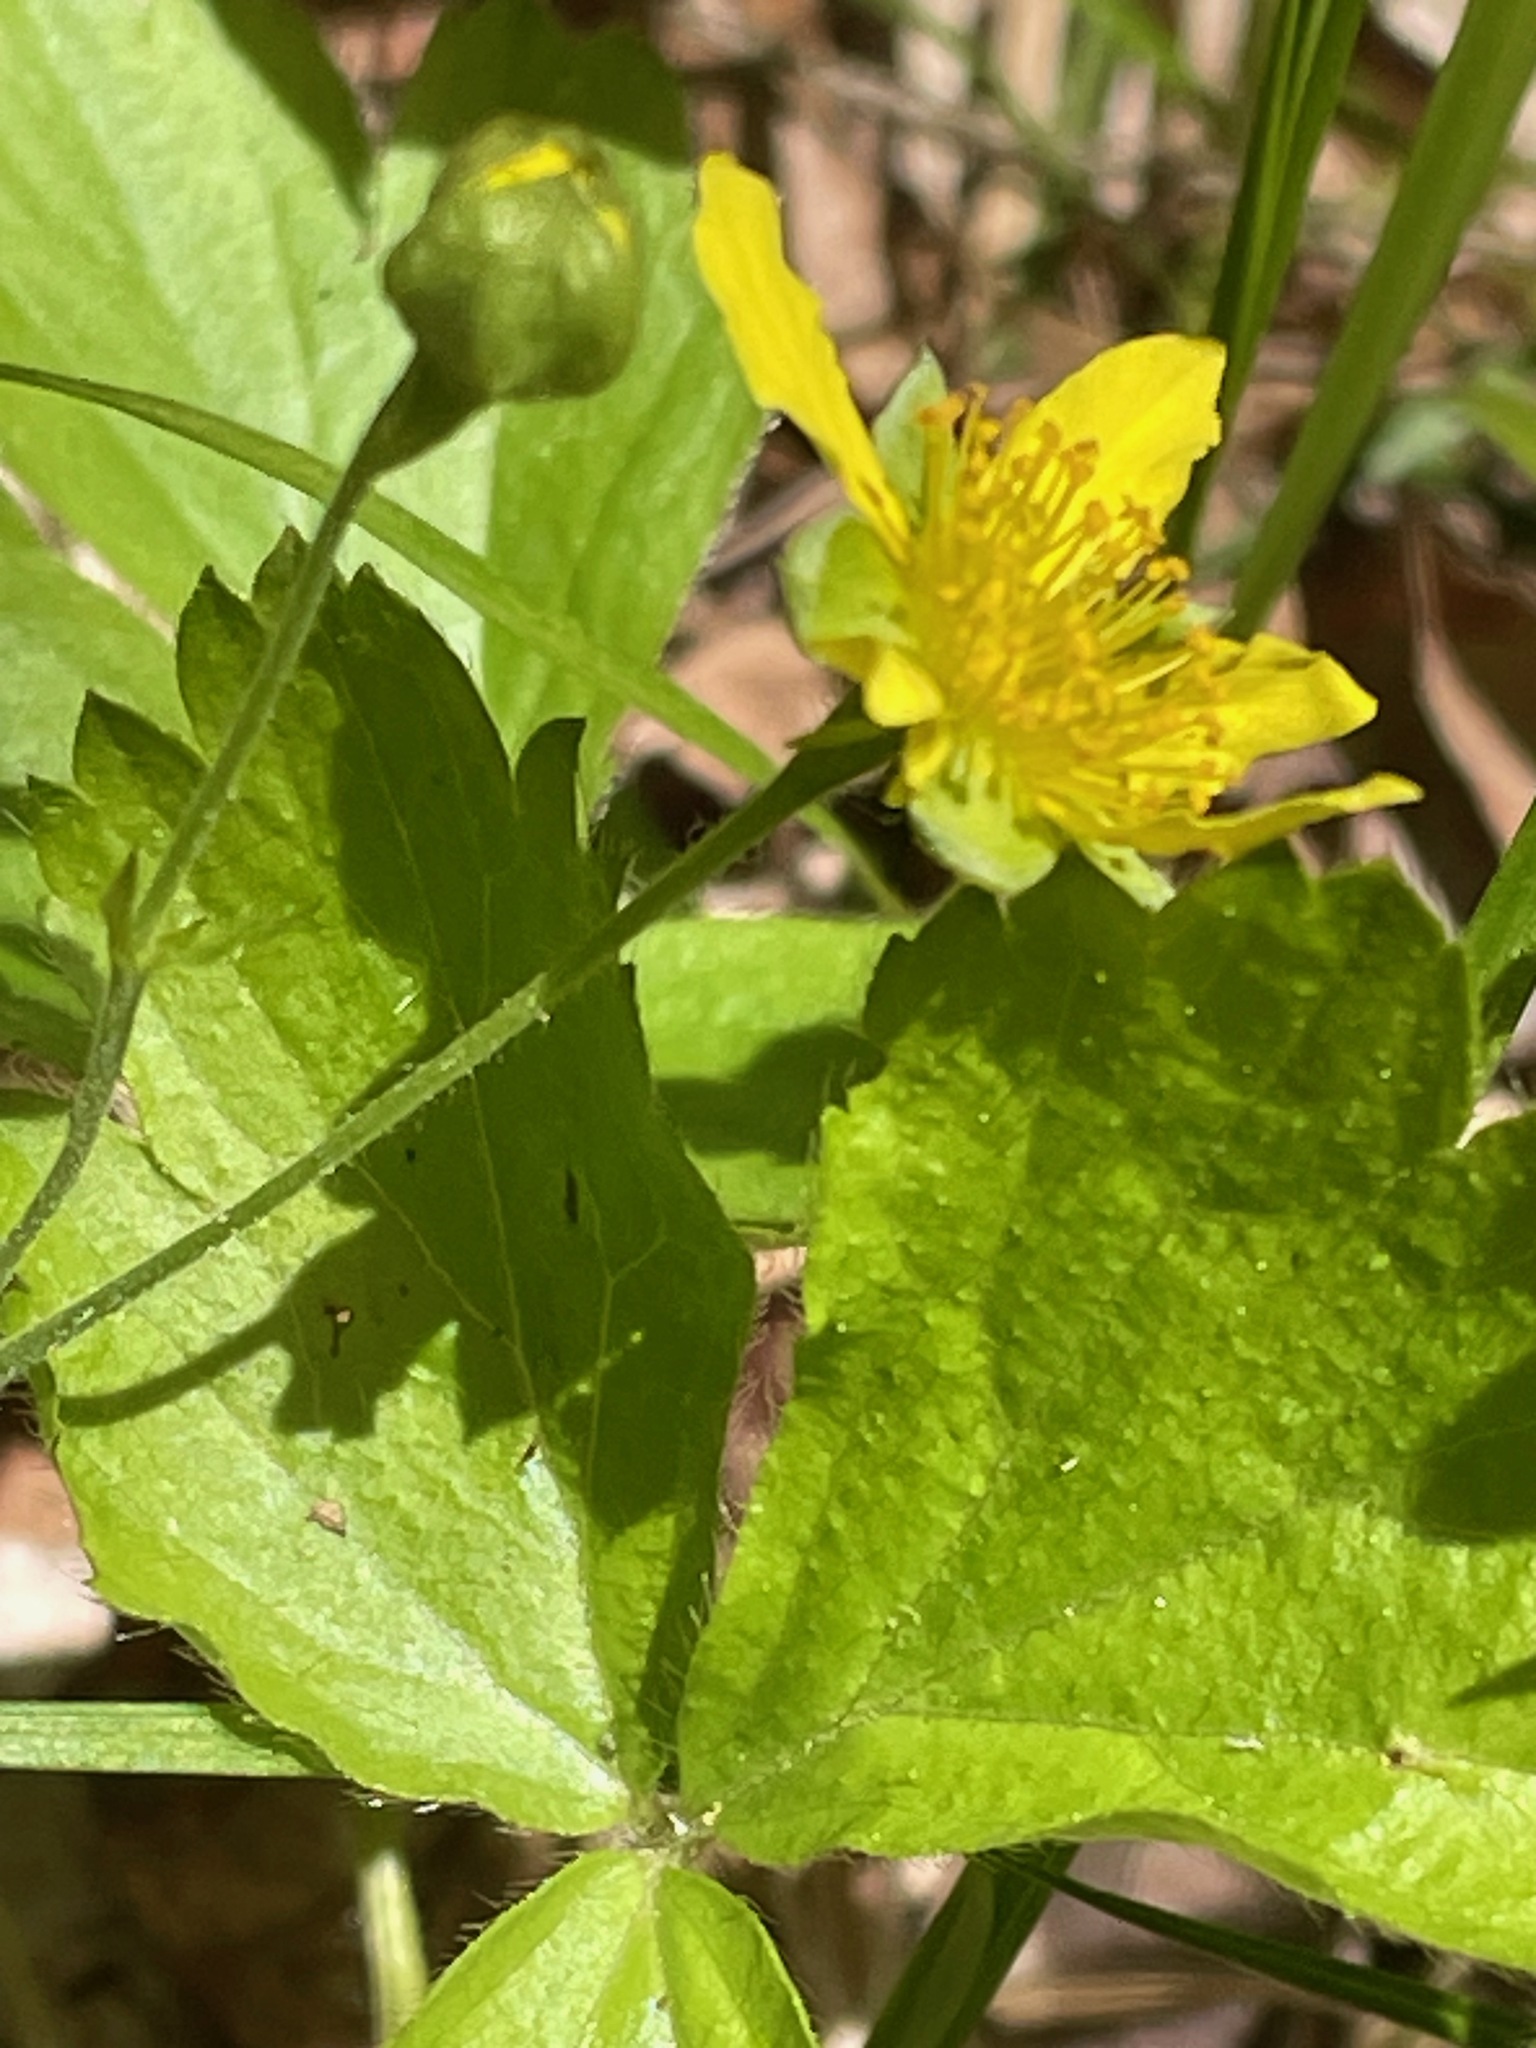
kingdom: Plantae
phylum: Tracheophyta
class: Magnoliopsida
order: Rosales
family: Rosaceae
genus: Geum
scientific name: Geum fragarioides
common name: Appalachian barren strawberry
